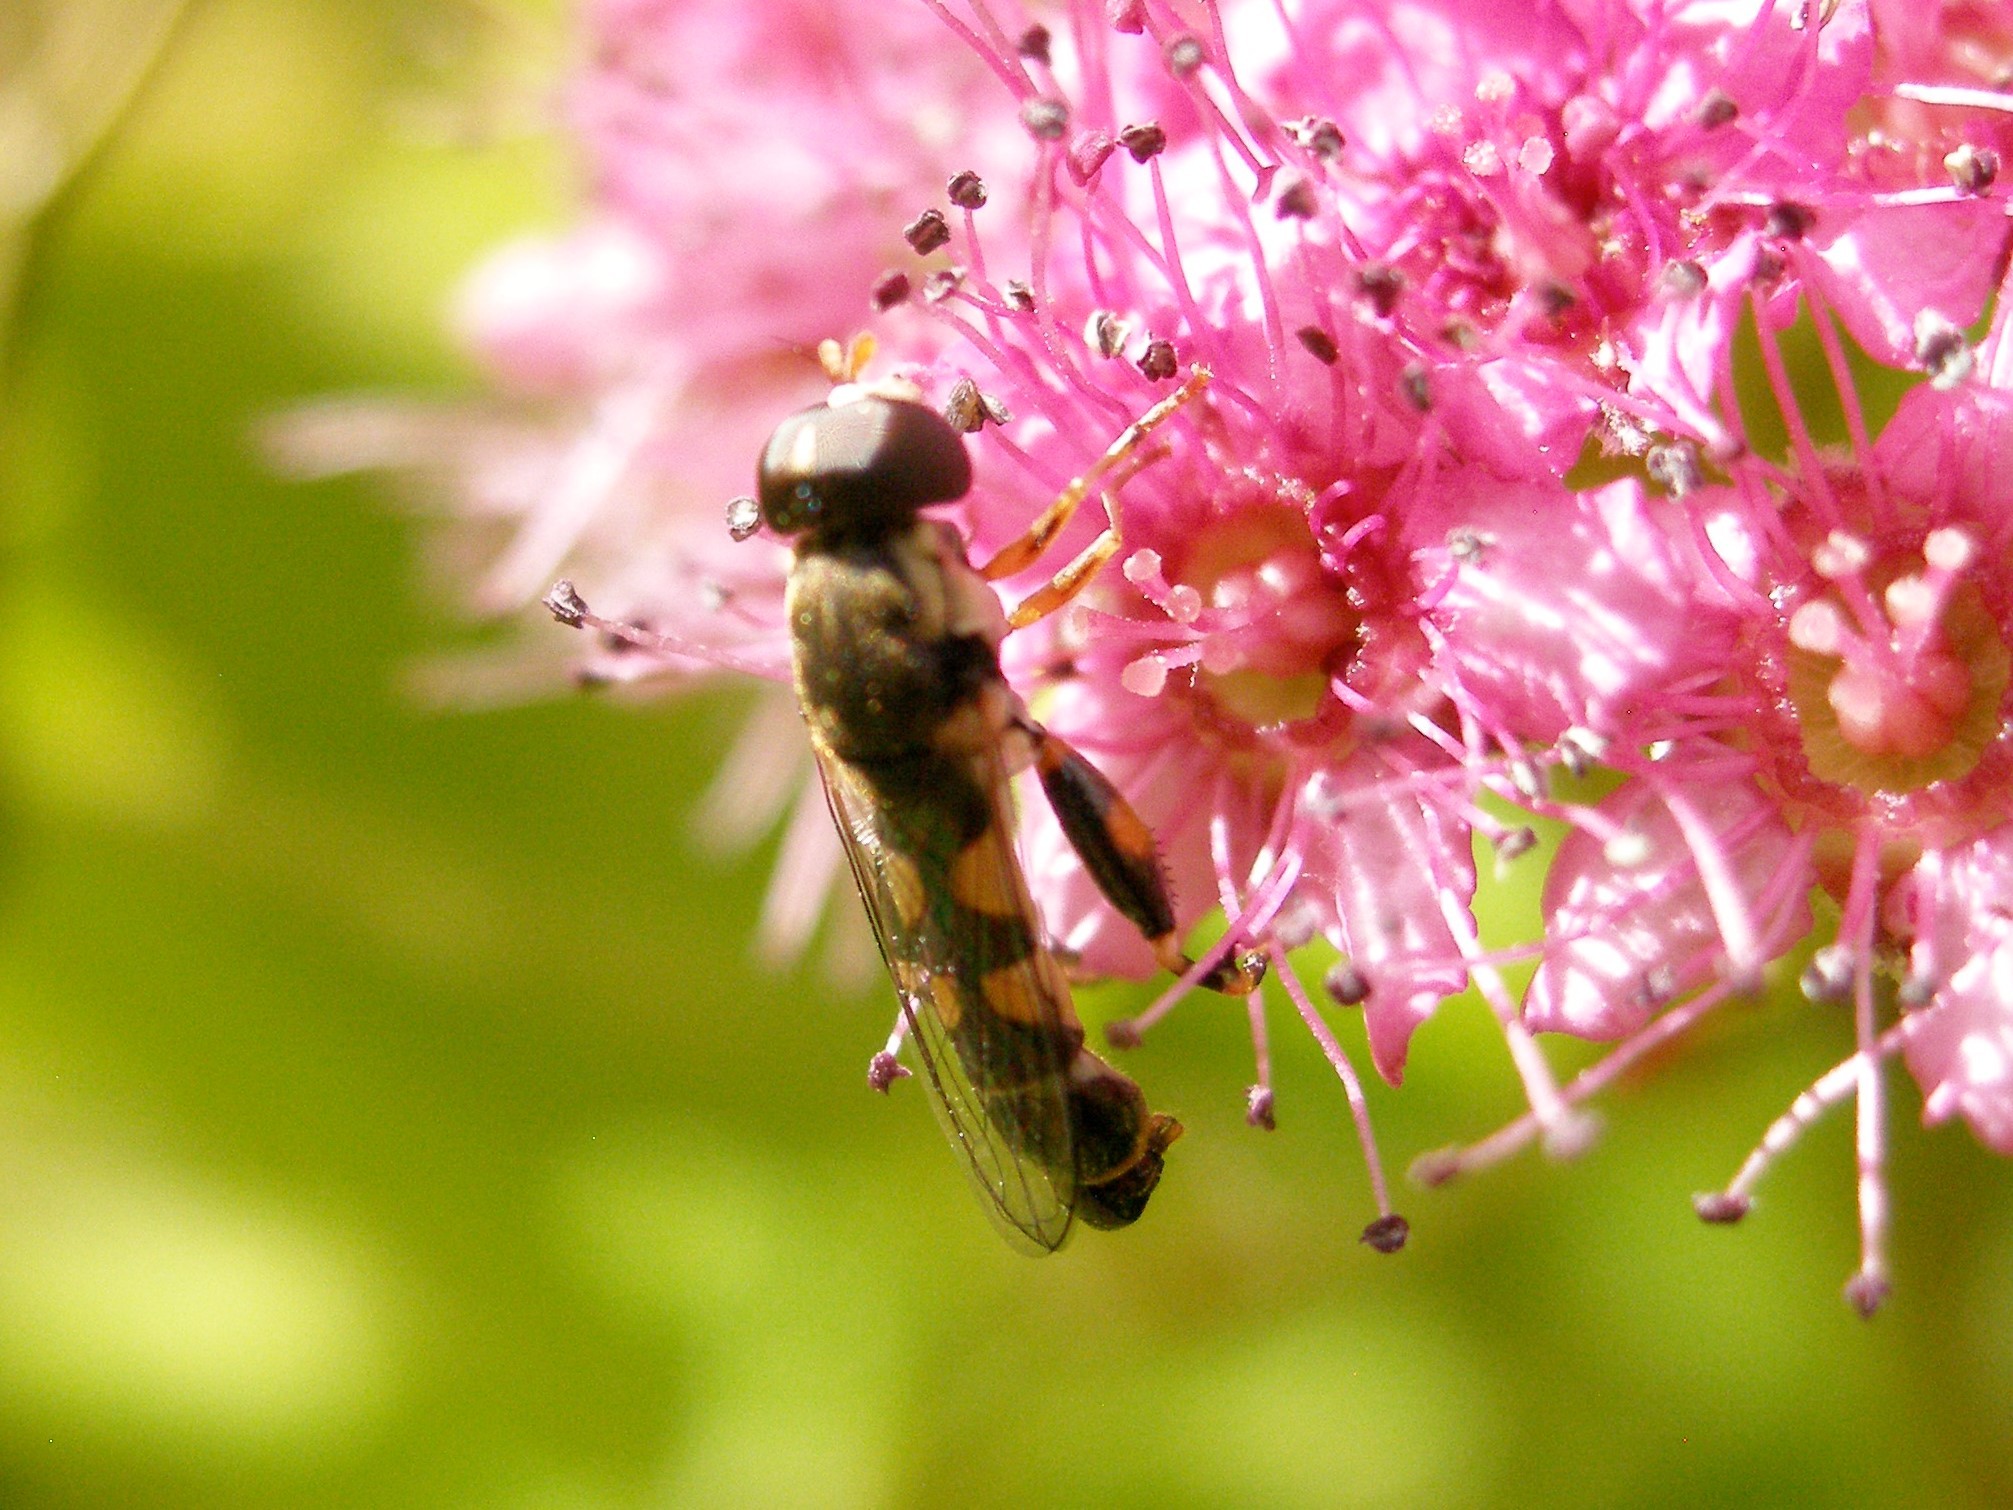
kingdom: Animalia
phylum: Arthropoda
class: Insecta
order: Diptera
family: Syrphidae
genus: Syritta
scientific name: Syritta pipiens
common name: Hover fly
